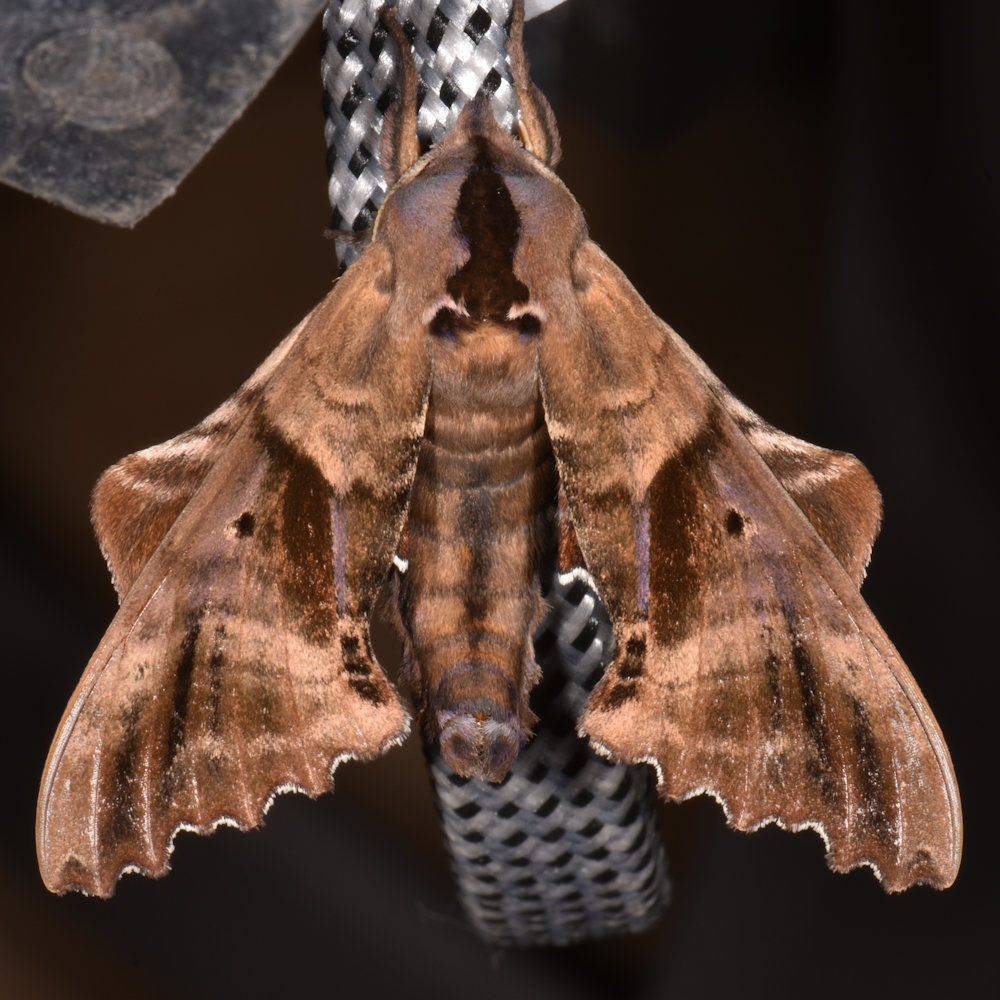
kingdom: Animalia
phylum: Arthropoda
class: Insecta
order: Lepidoptera
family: Sphingidae
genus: Paonias
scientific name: Paonias excaecata
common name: Blind-eyed sphinx
